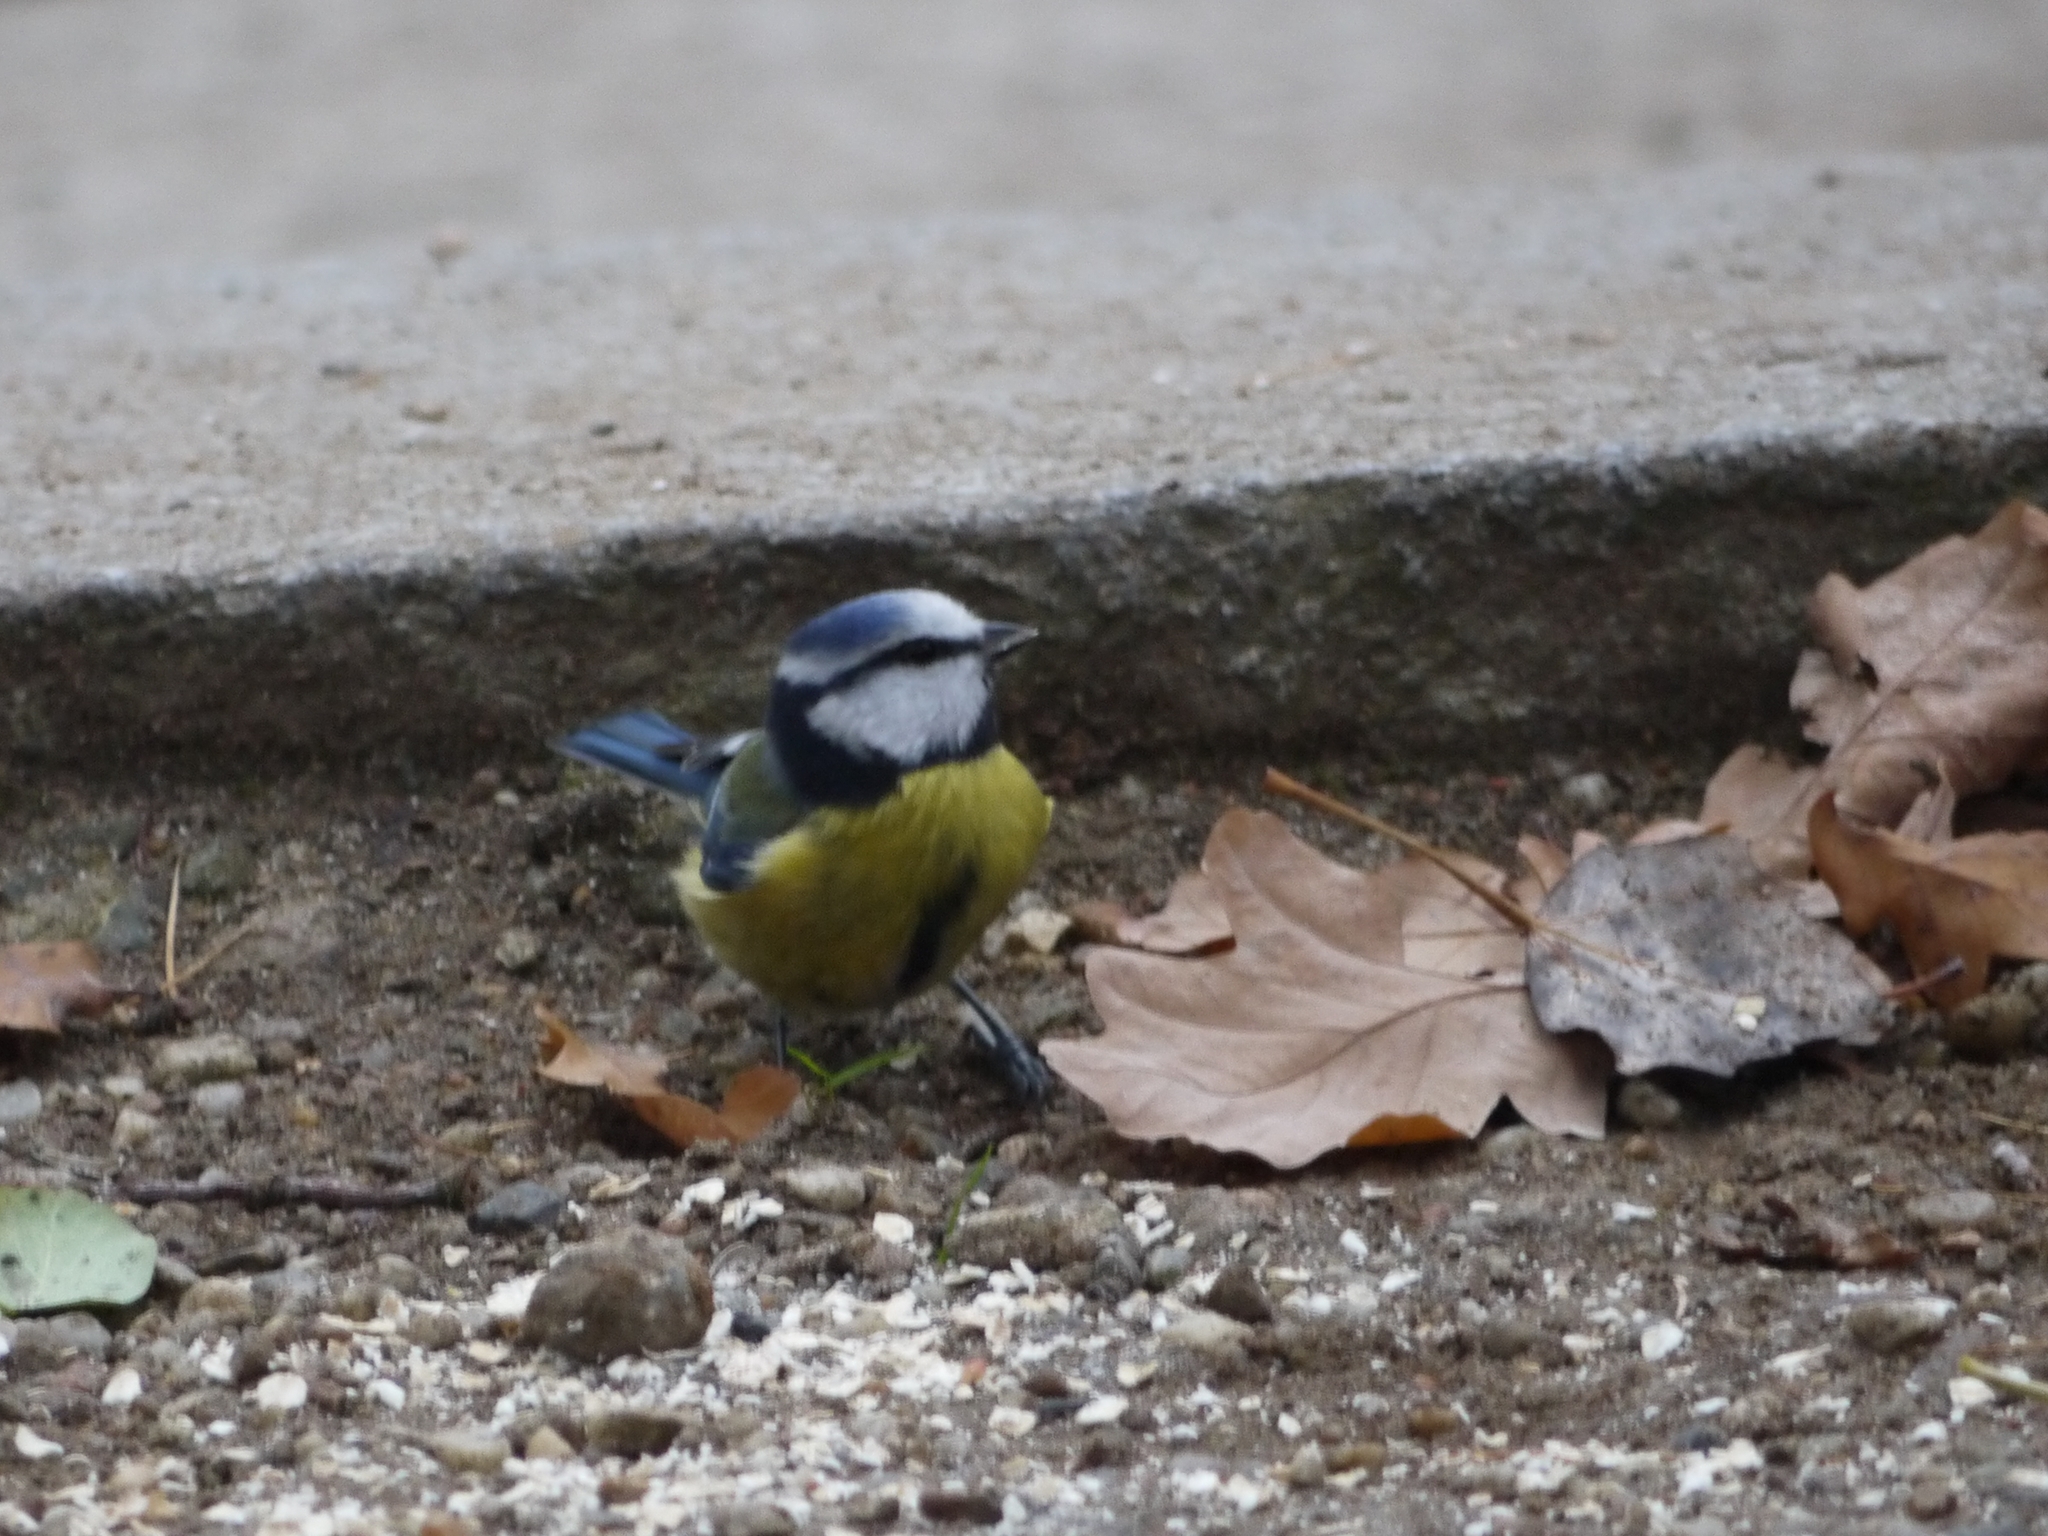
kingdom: Animalia
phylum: Chordata
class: Aves
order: Passeriformes
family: Paridae
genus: Cyanistes
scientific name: Cyanistes caeruleus
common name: Eurasian blue tit
